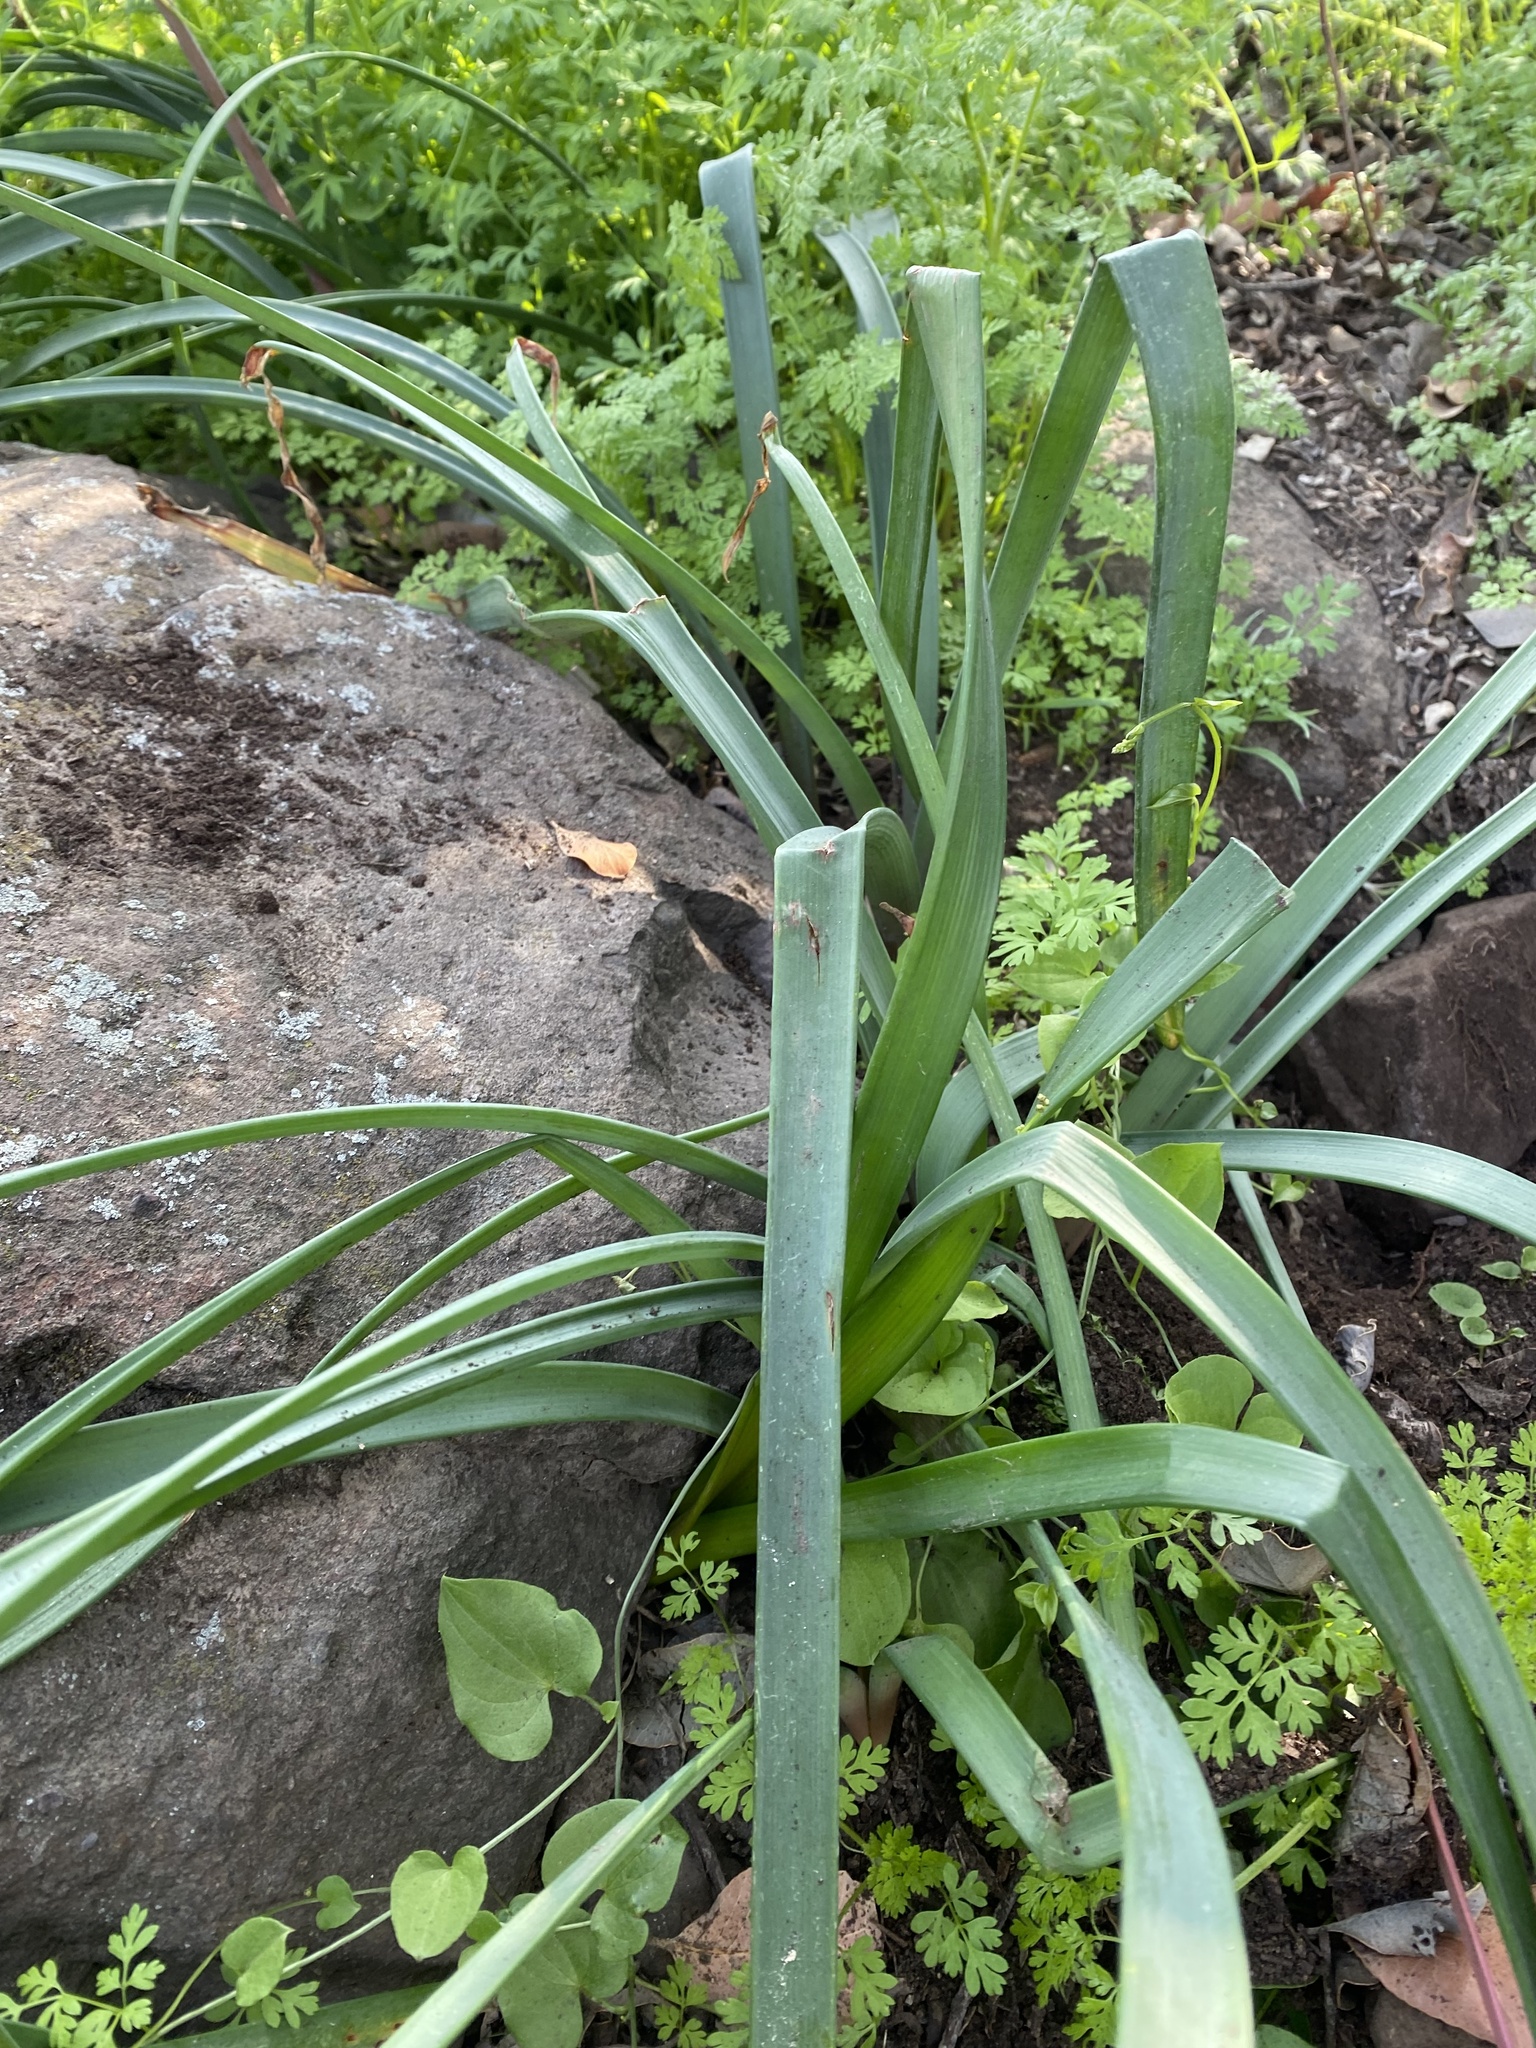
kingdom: Plantae
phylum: Tracheophyta
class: Liliopsida
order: Asparagales
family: Amaryllidaceae
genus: Phycella
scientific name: Phycella cyrtanthoides
